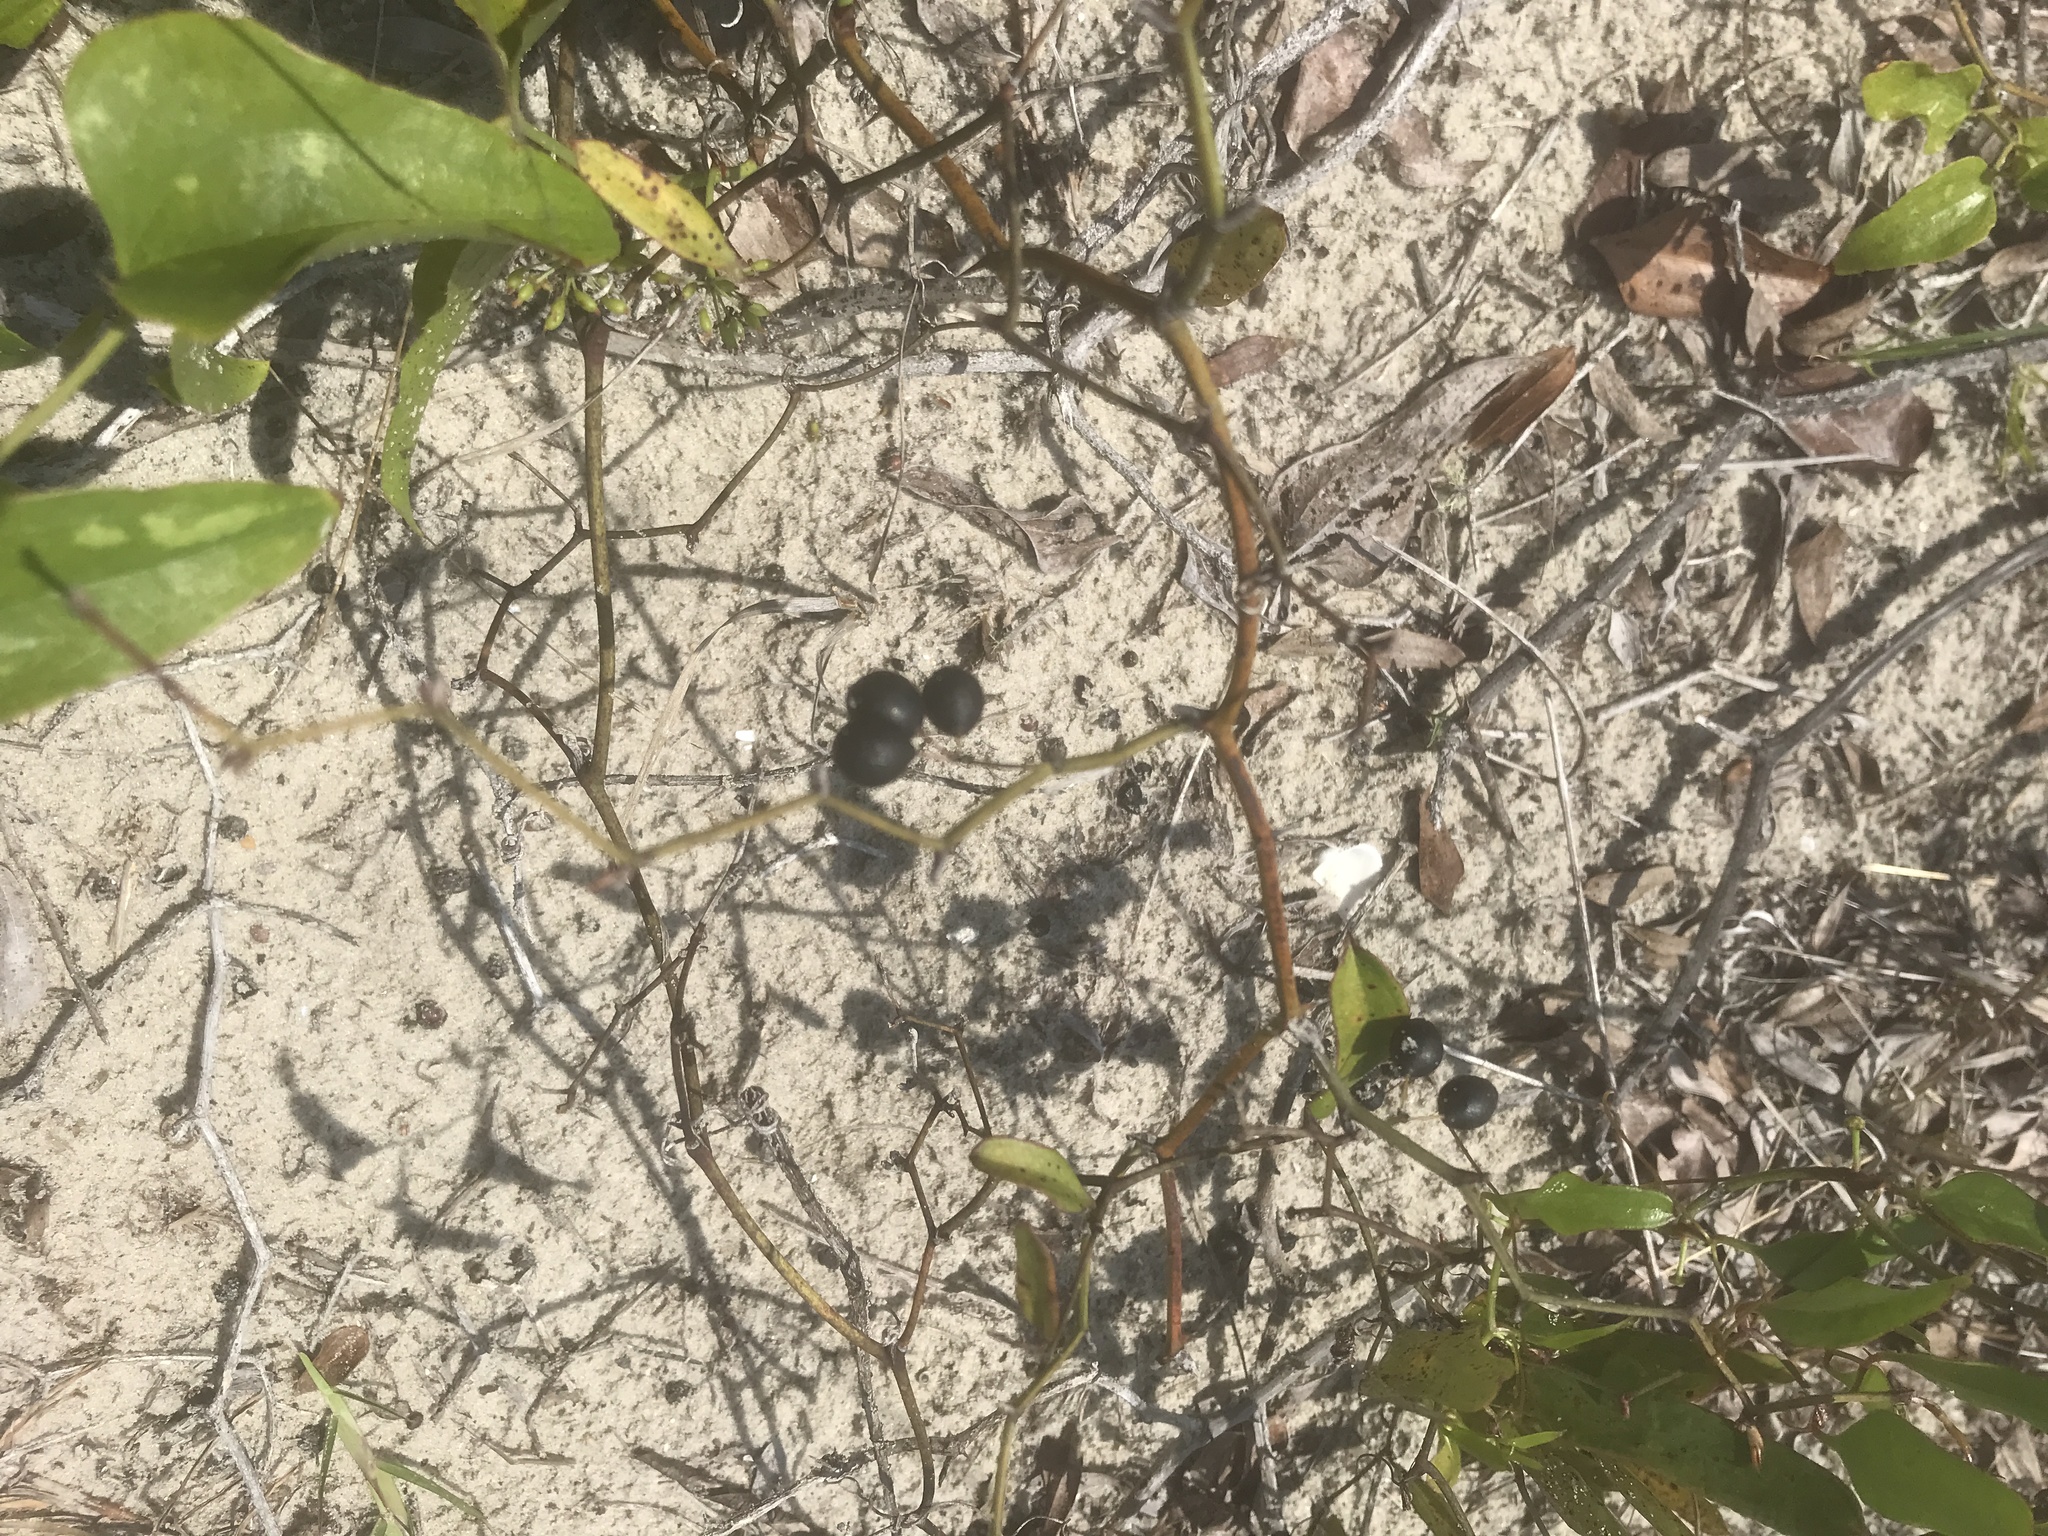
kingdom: Plantae
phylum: Tracheophyta
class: Liliopsida
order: Liliales
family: Smilacaceae
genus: Smilax
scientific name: Smilax bona-nox
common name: Catbrier
